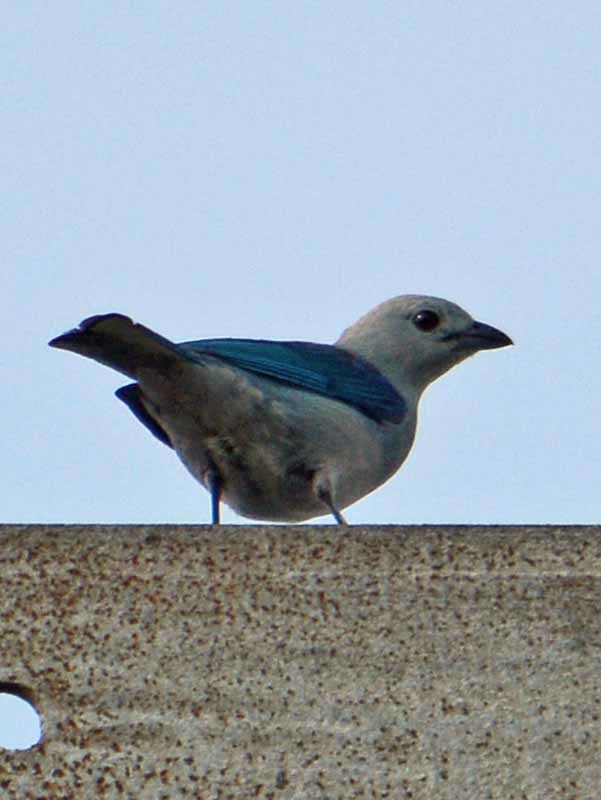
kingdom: Animalia
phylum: Chordata
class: Aves
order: Passeriformes
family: Thraupidae
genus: Thraupis
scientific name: Thraupis episcopus
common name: Blue-grey tanager
